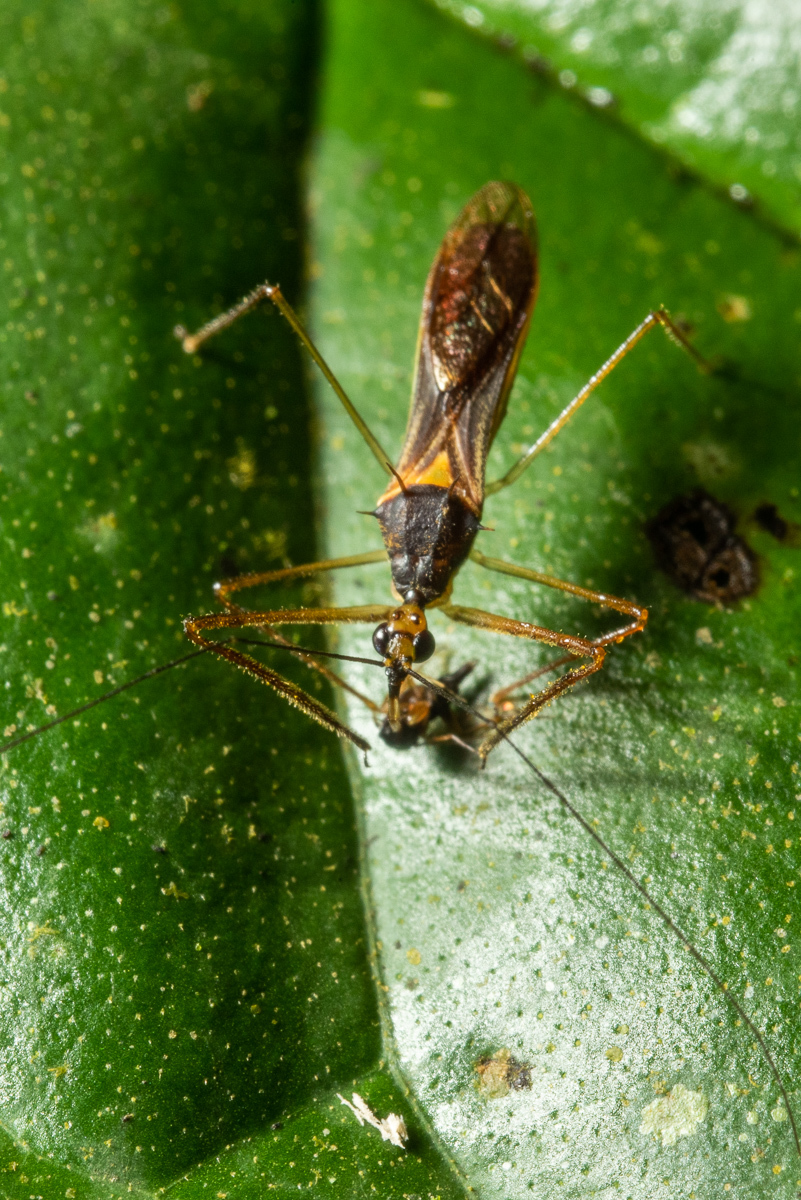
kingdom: Animalia
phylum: Arthropoda
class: Insecta
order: Hemiptera
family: Reduviidae
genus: Repipta
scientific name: Repipta lepidula
